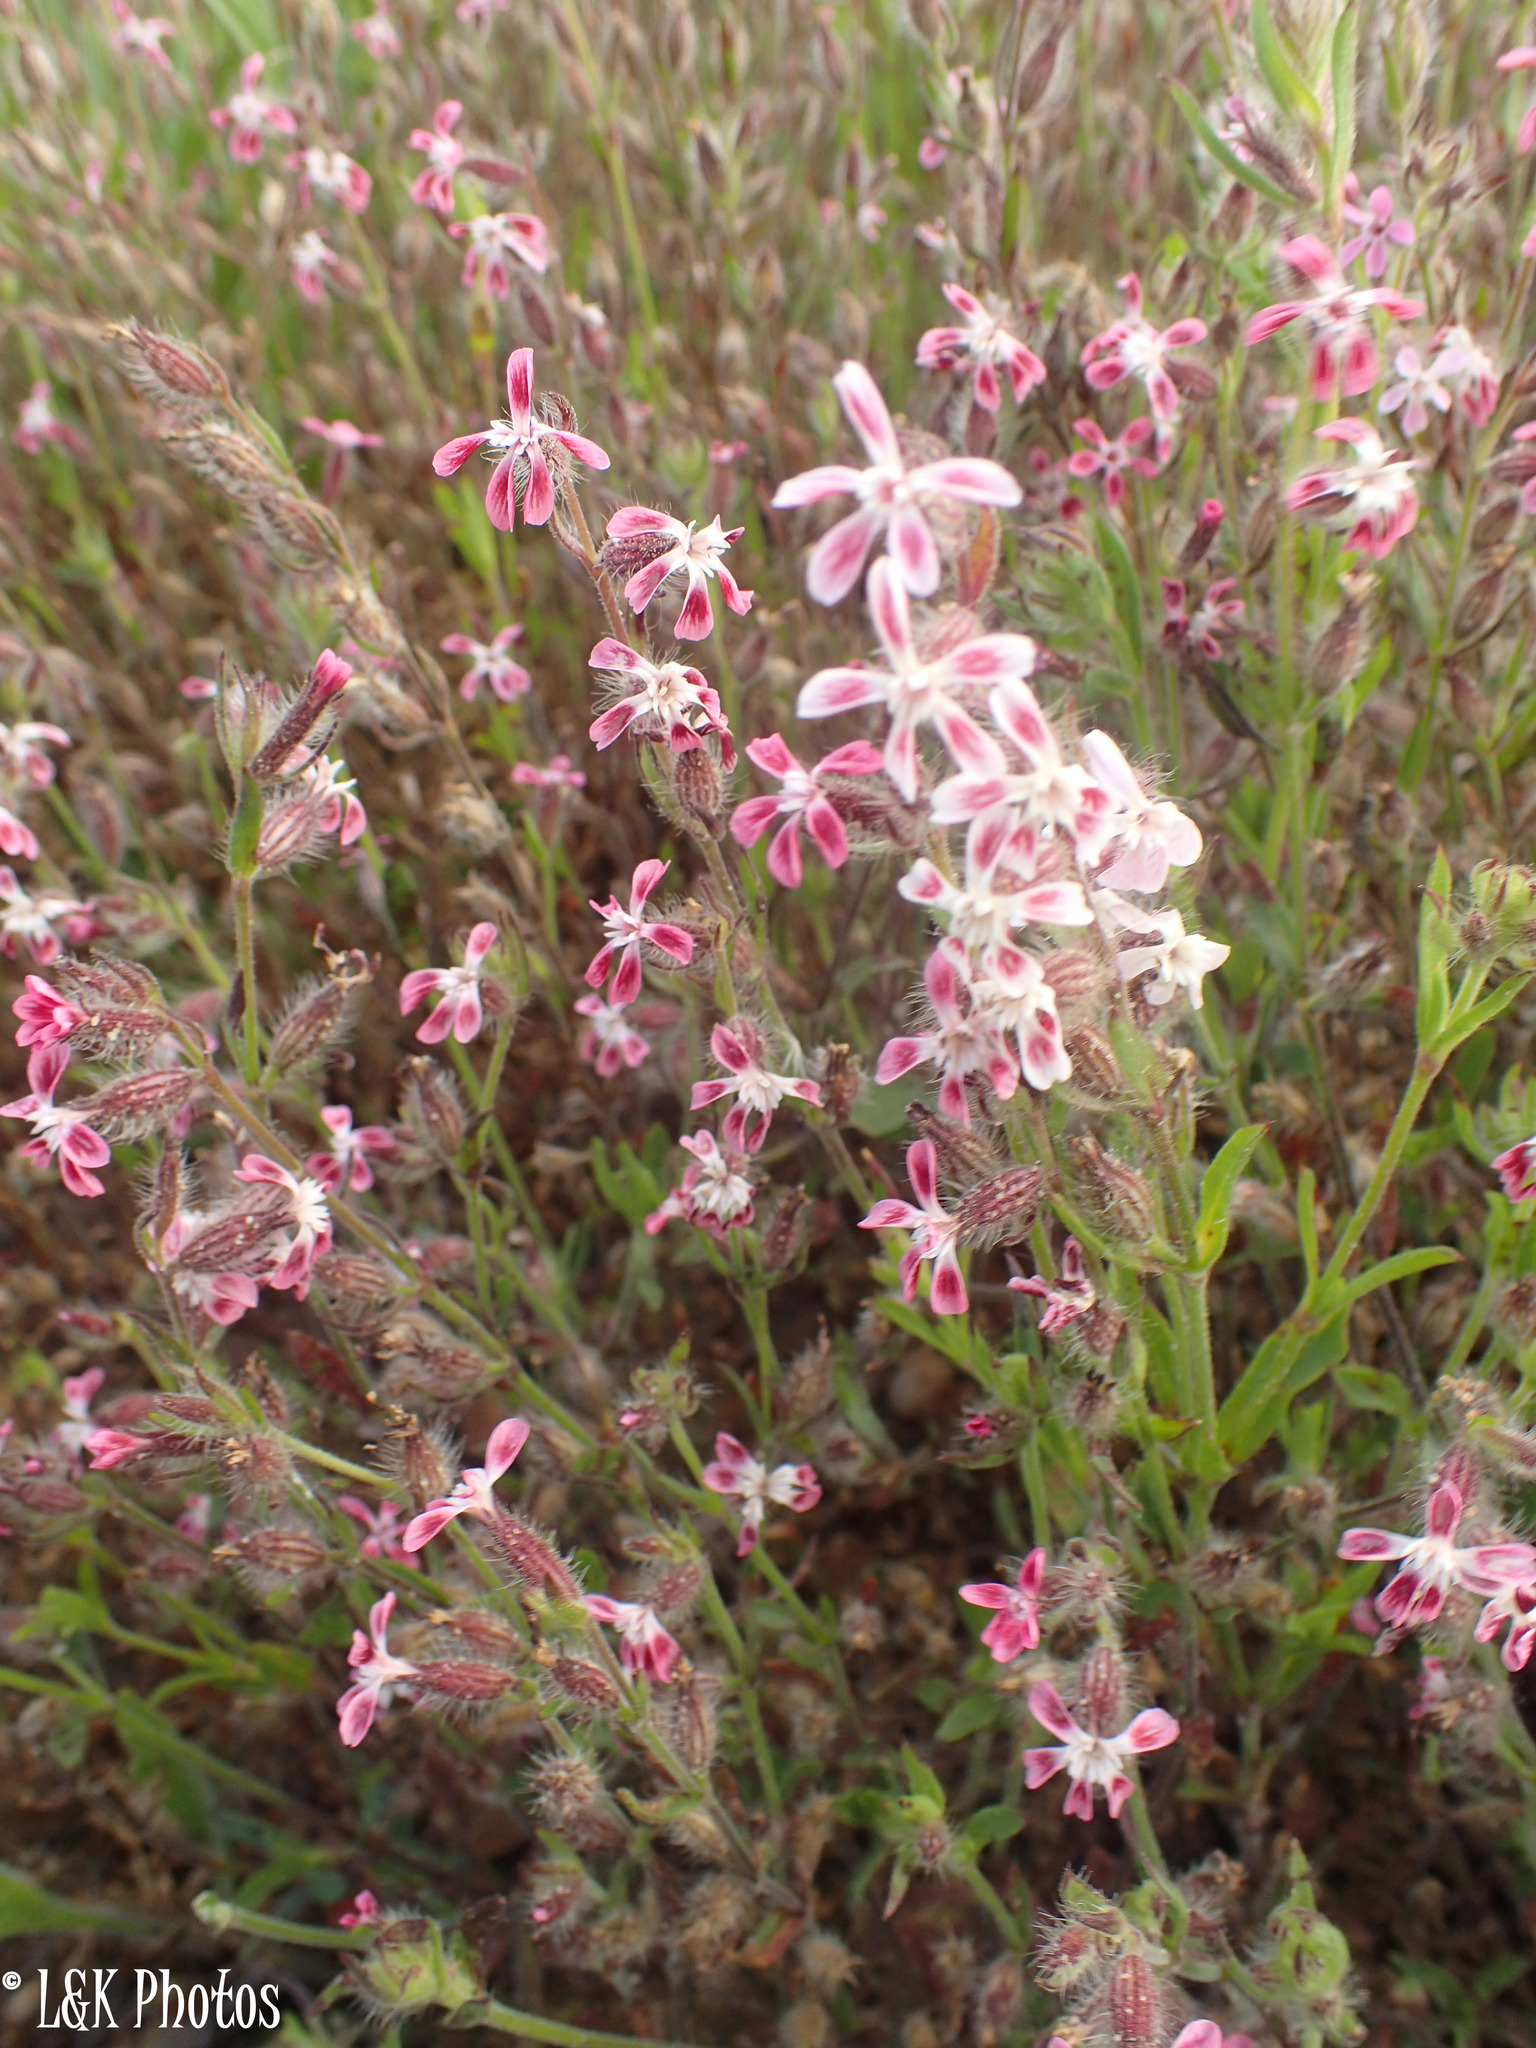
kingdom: Plantae
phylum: Tracheophyta
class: Magnoliopsida
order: Caryophyllales
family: Caryophyllaceae
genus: Silene
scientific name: Silene gallica
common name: Small-flowered catchfly
